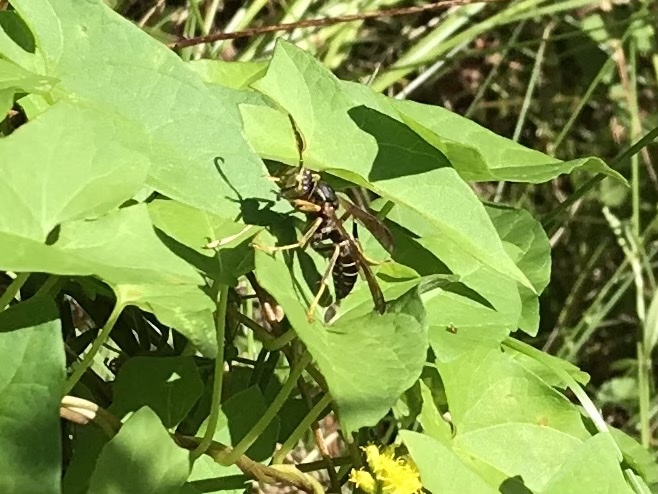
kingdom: Animalia
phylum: Arthropoda
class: Insecta
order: Hymenoptera
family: Eumenidae
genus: Polistes
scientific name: Polistes fuscatus
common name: Dark paper wasp
